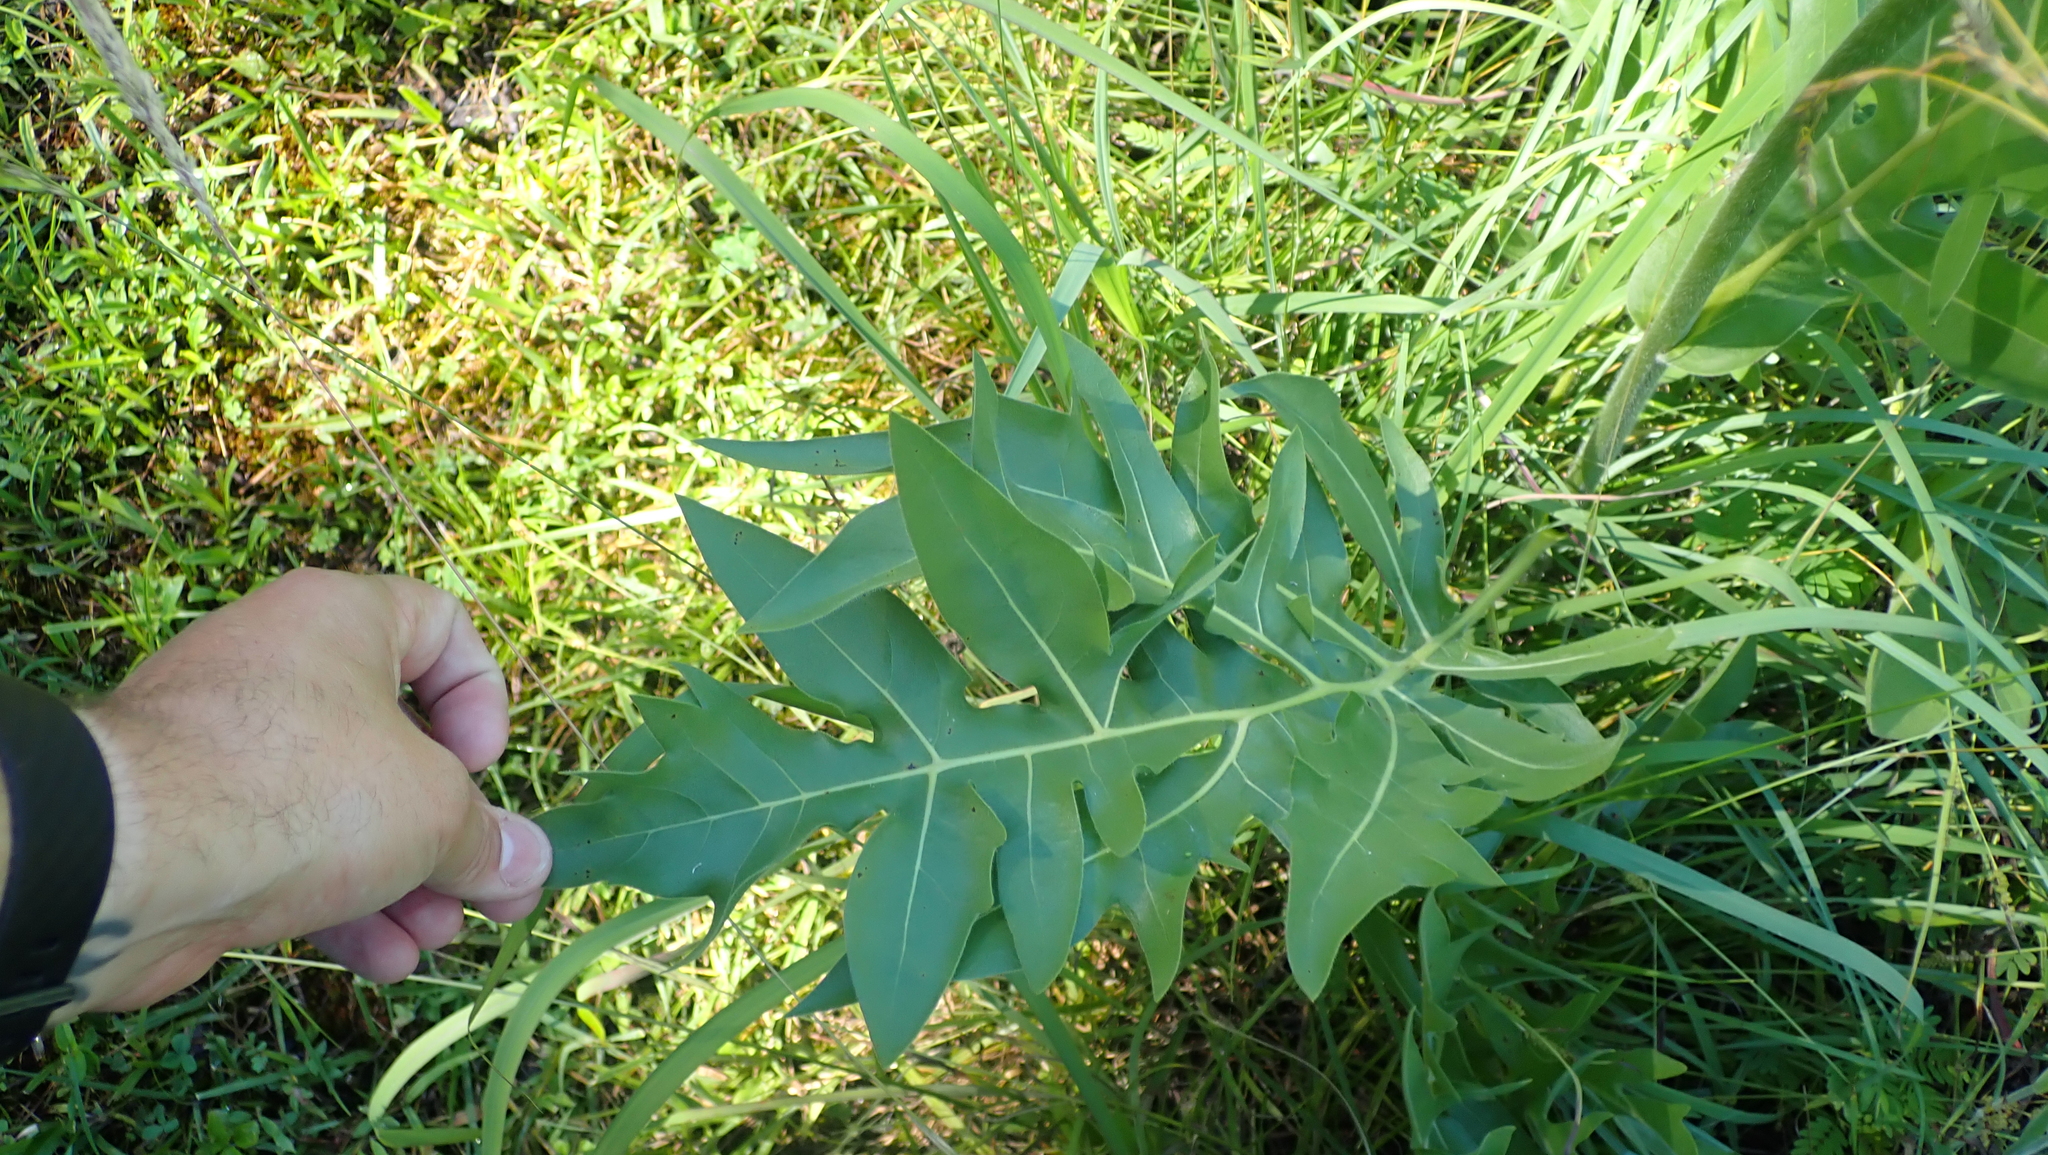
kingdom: Plantae
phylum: Tracheophyta
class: Magnoliopsida
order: Asterales
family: Asteraceae
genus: Silphium
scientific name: Silphium pinnatifidum
